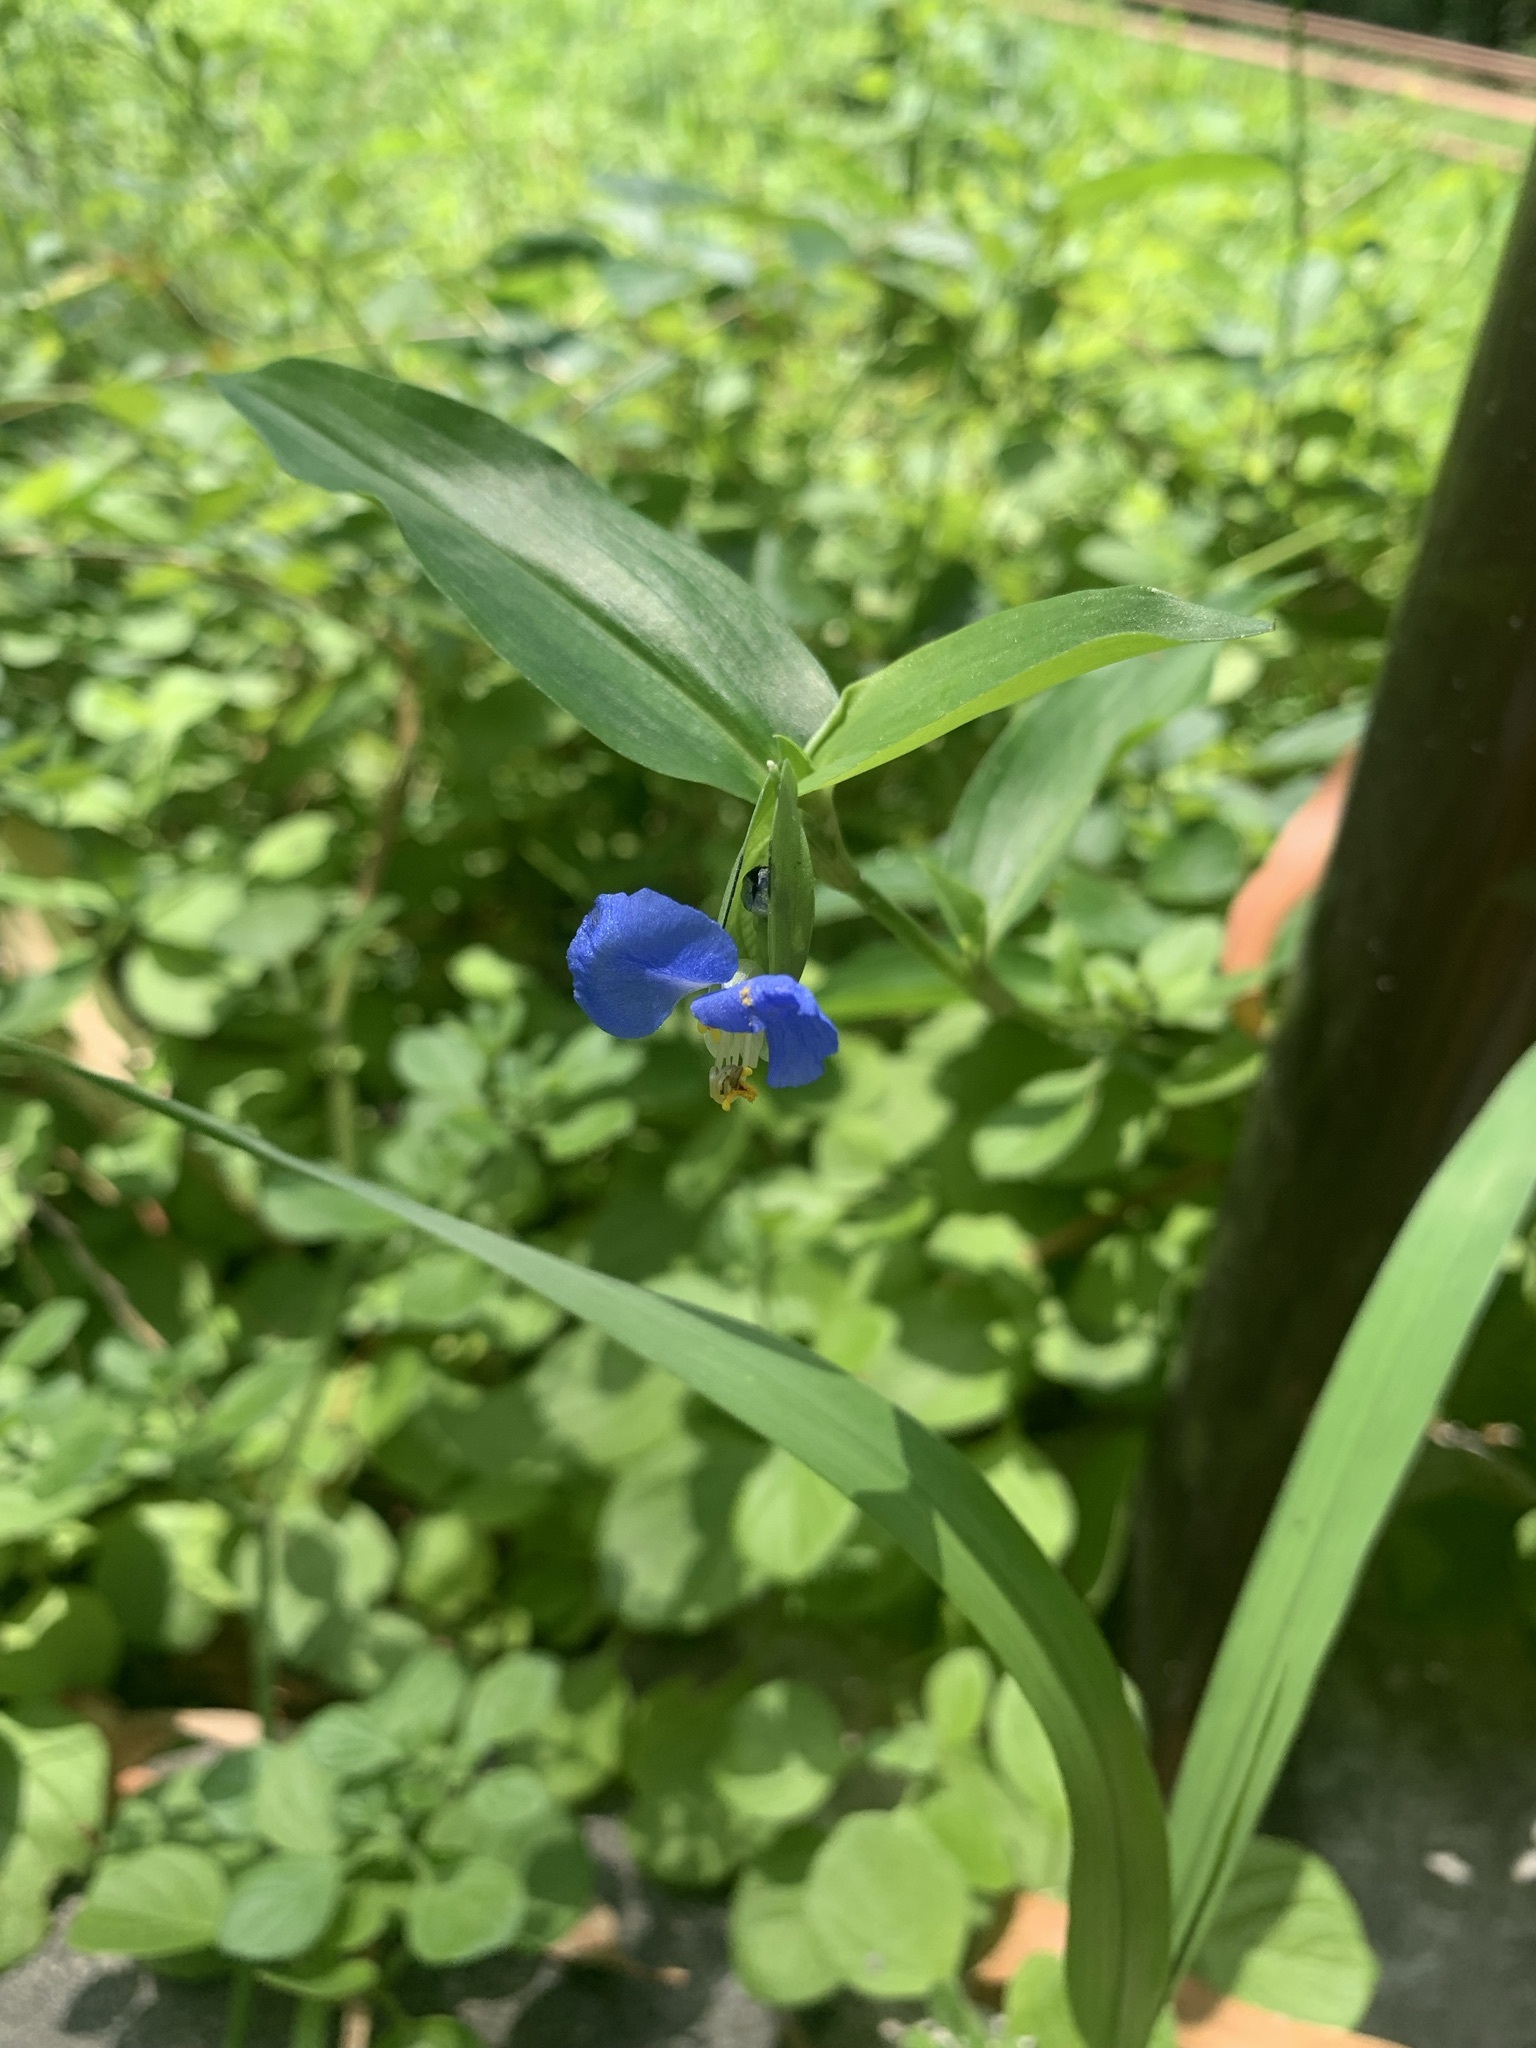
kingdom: Plantae
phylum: Tracheophyta
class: Liliopsida
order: Commelinales
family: Commelinaceae
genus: Commelina
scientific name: Commelina communis
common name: Asiatic dayflower
